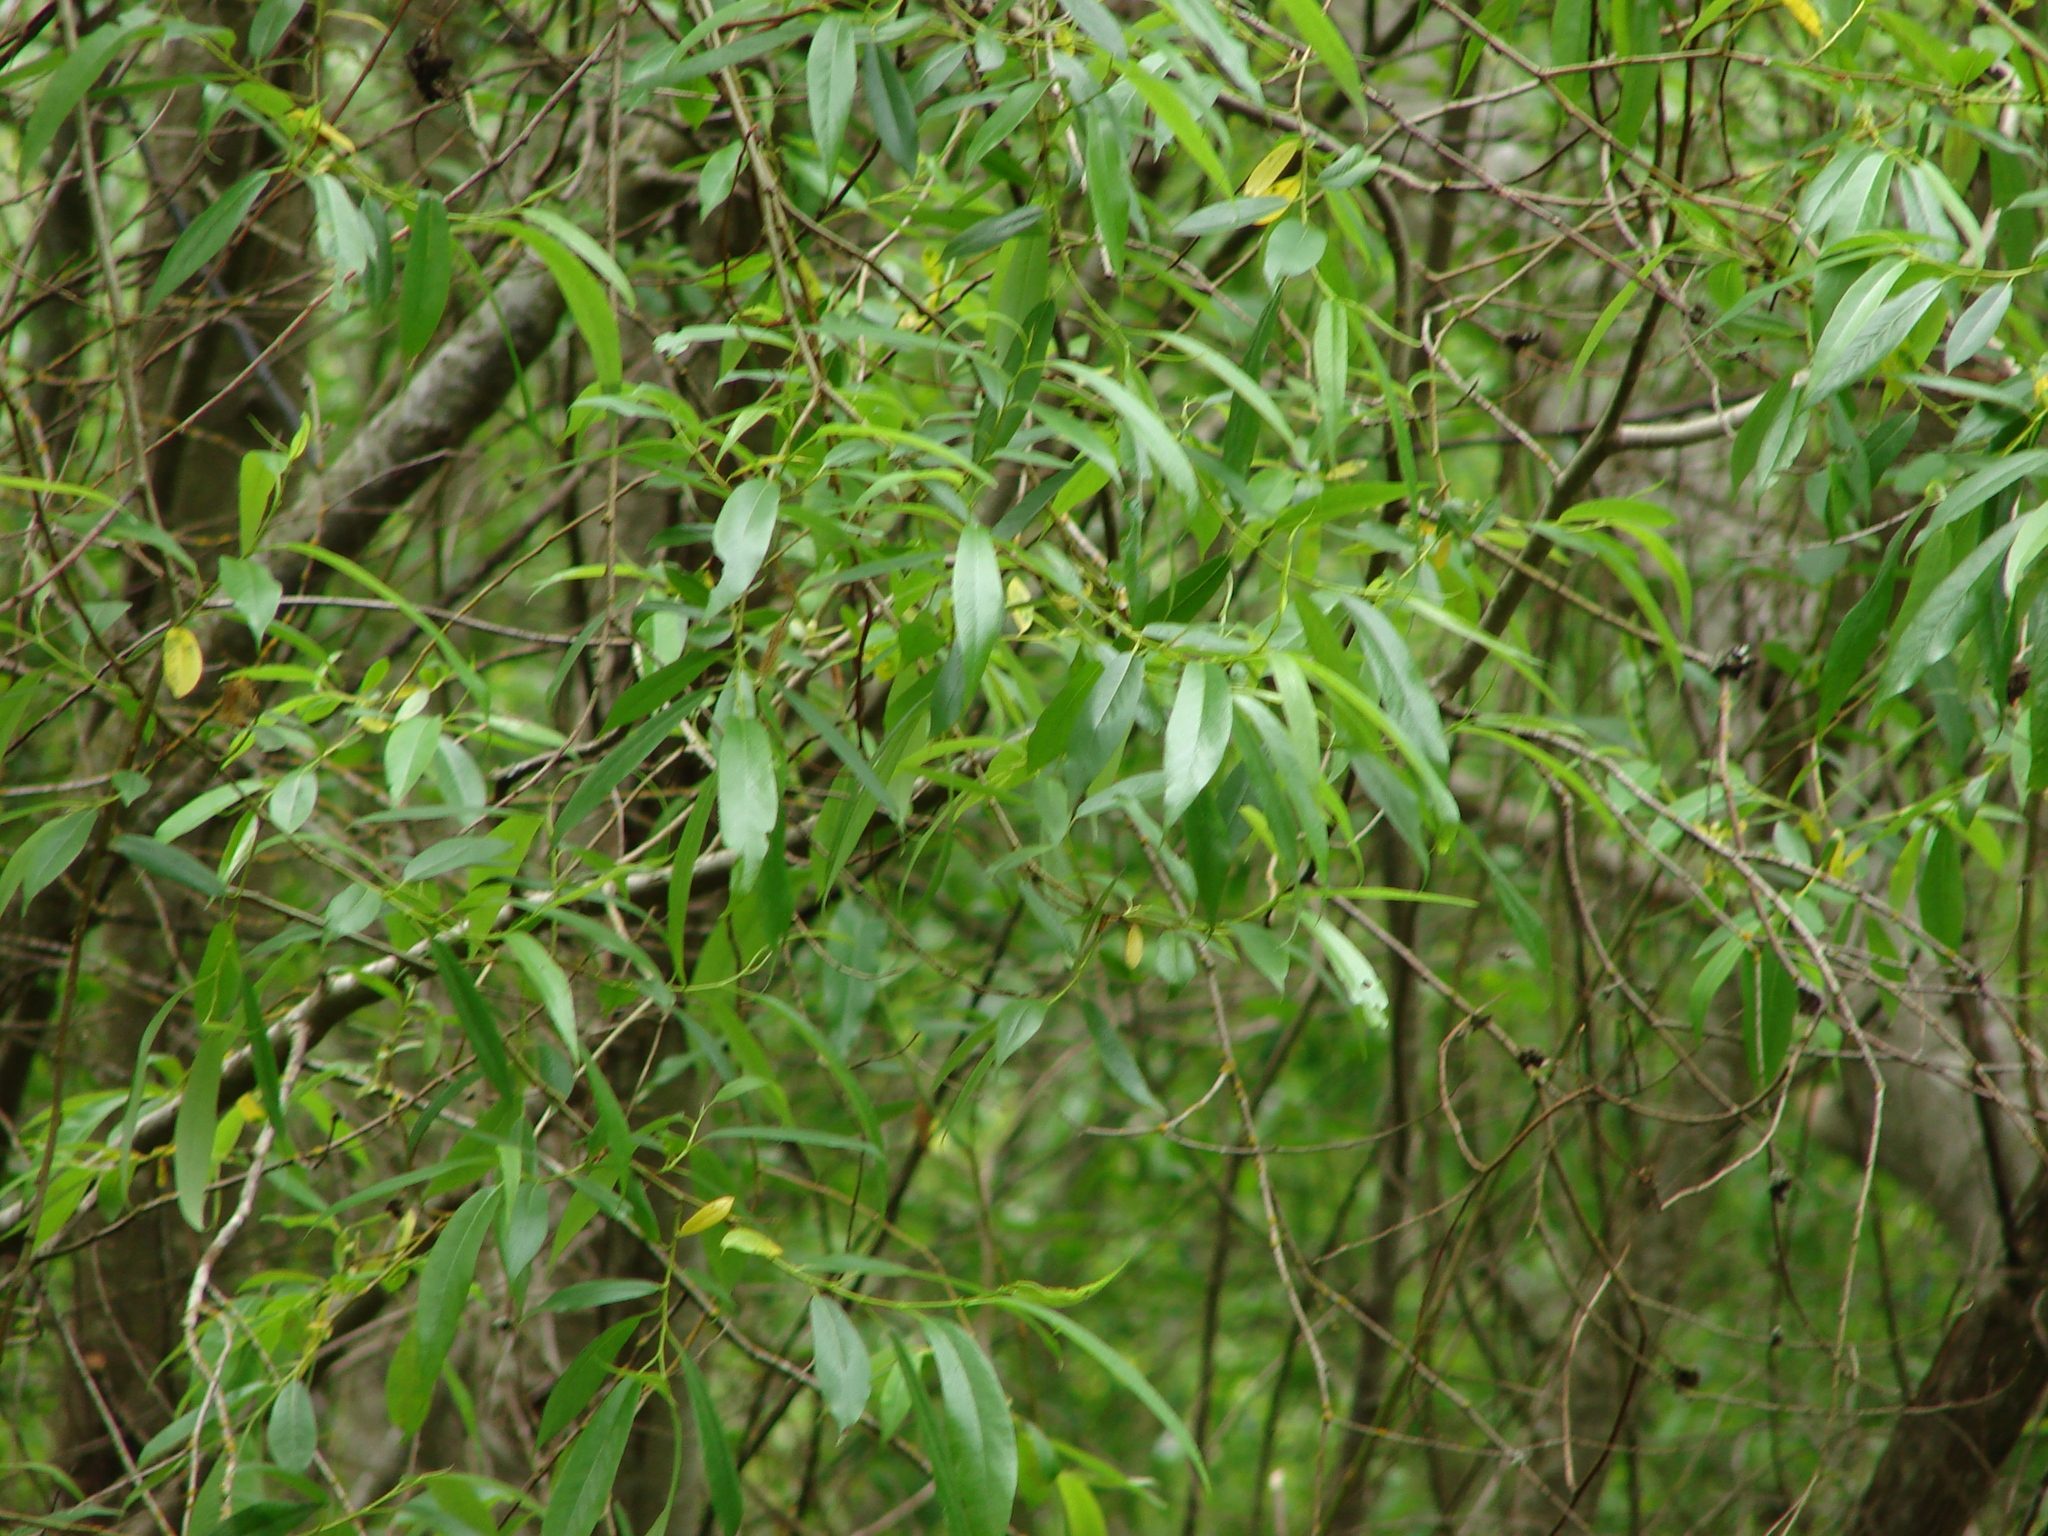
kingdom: Plantae
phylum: Tracheophyta
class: Magnoliopsida
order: Malpighiales
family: Salicaceae
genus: Salix
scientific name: Salix lucida
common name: Shining willow
